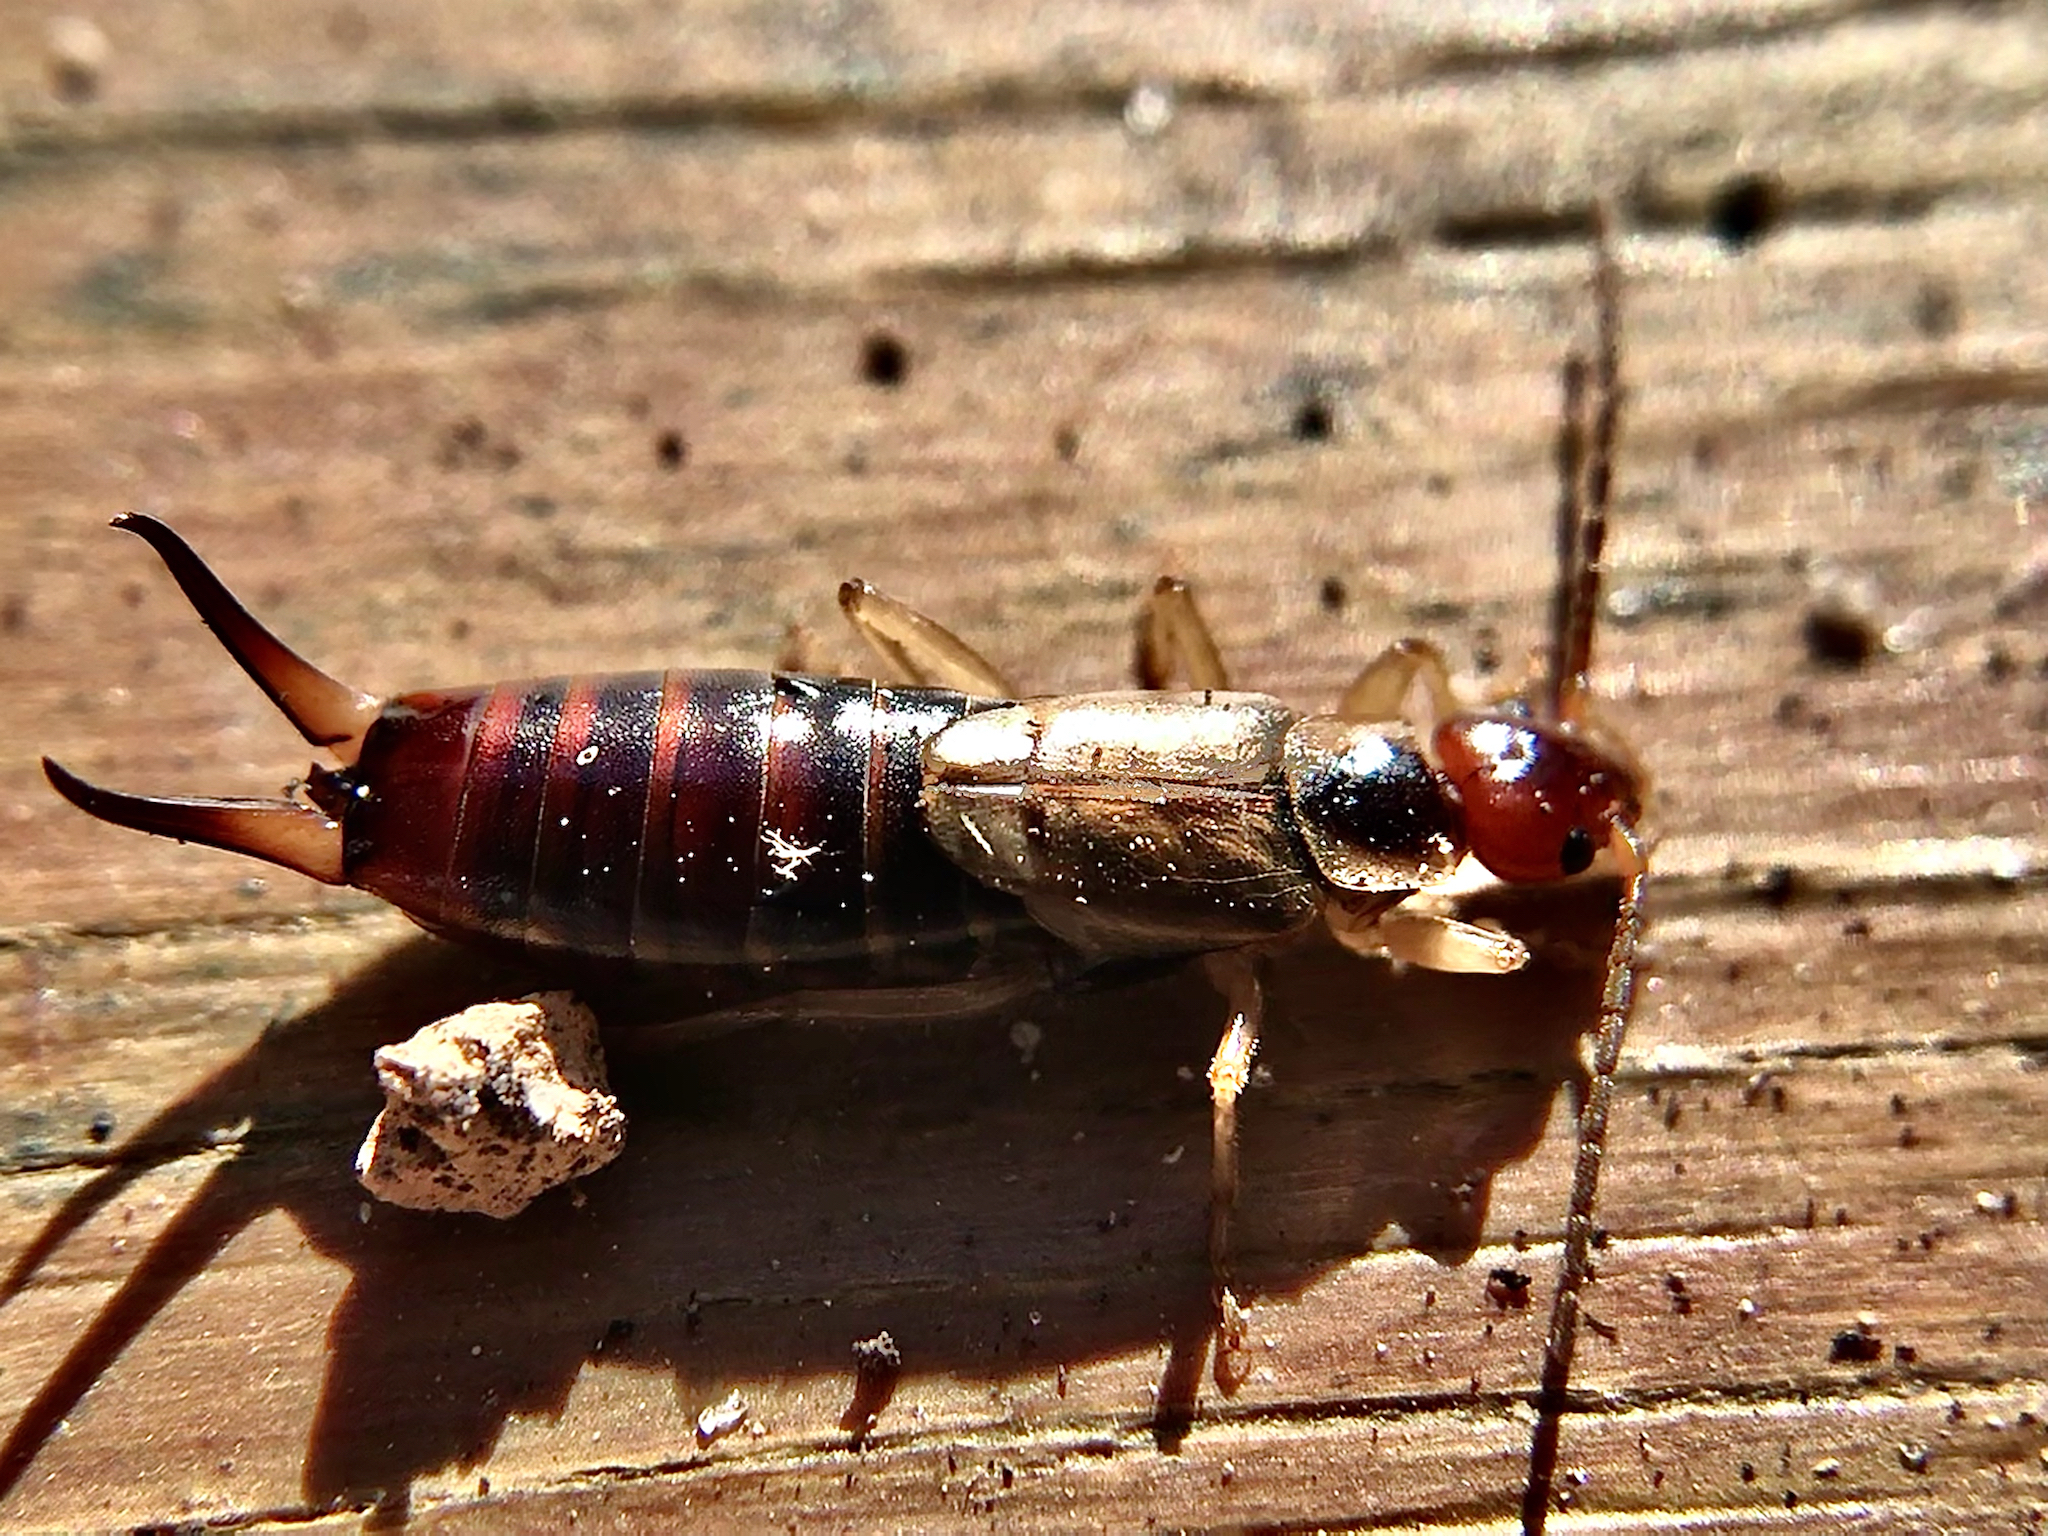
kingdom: Animalia
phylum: Arthropoda
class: Insecta
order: Dermaptera
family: Forficulidae
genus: Forficula
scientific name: Forficula
